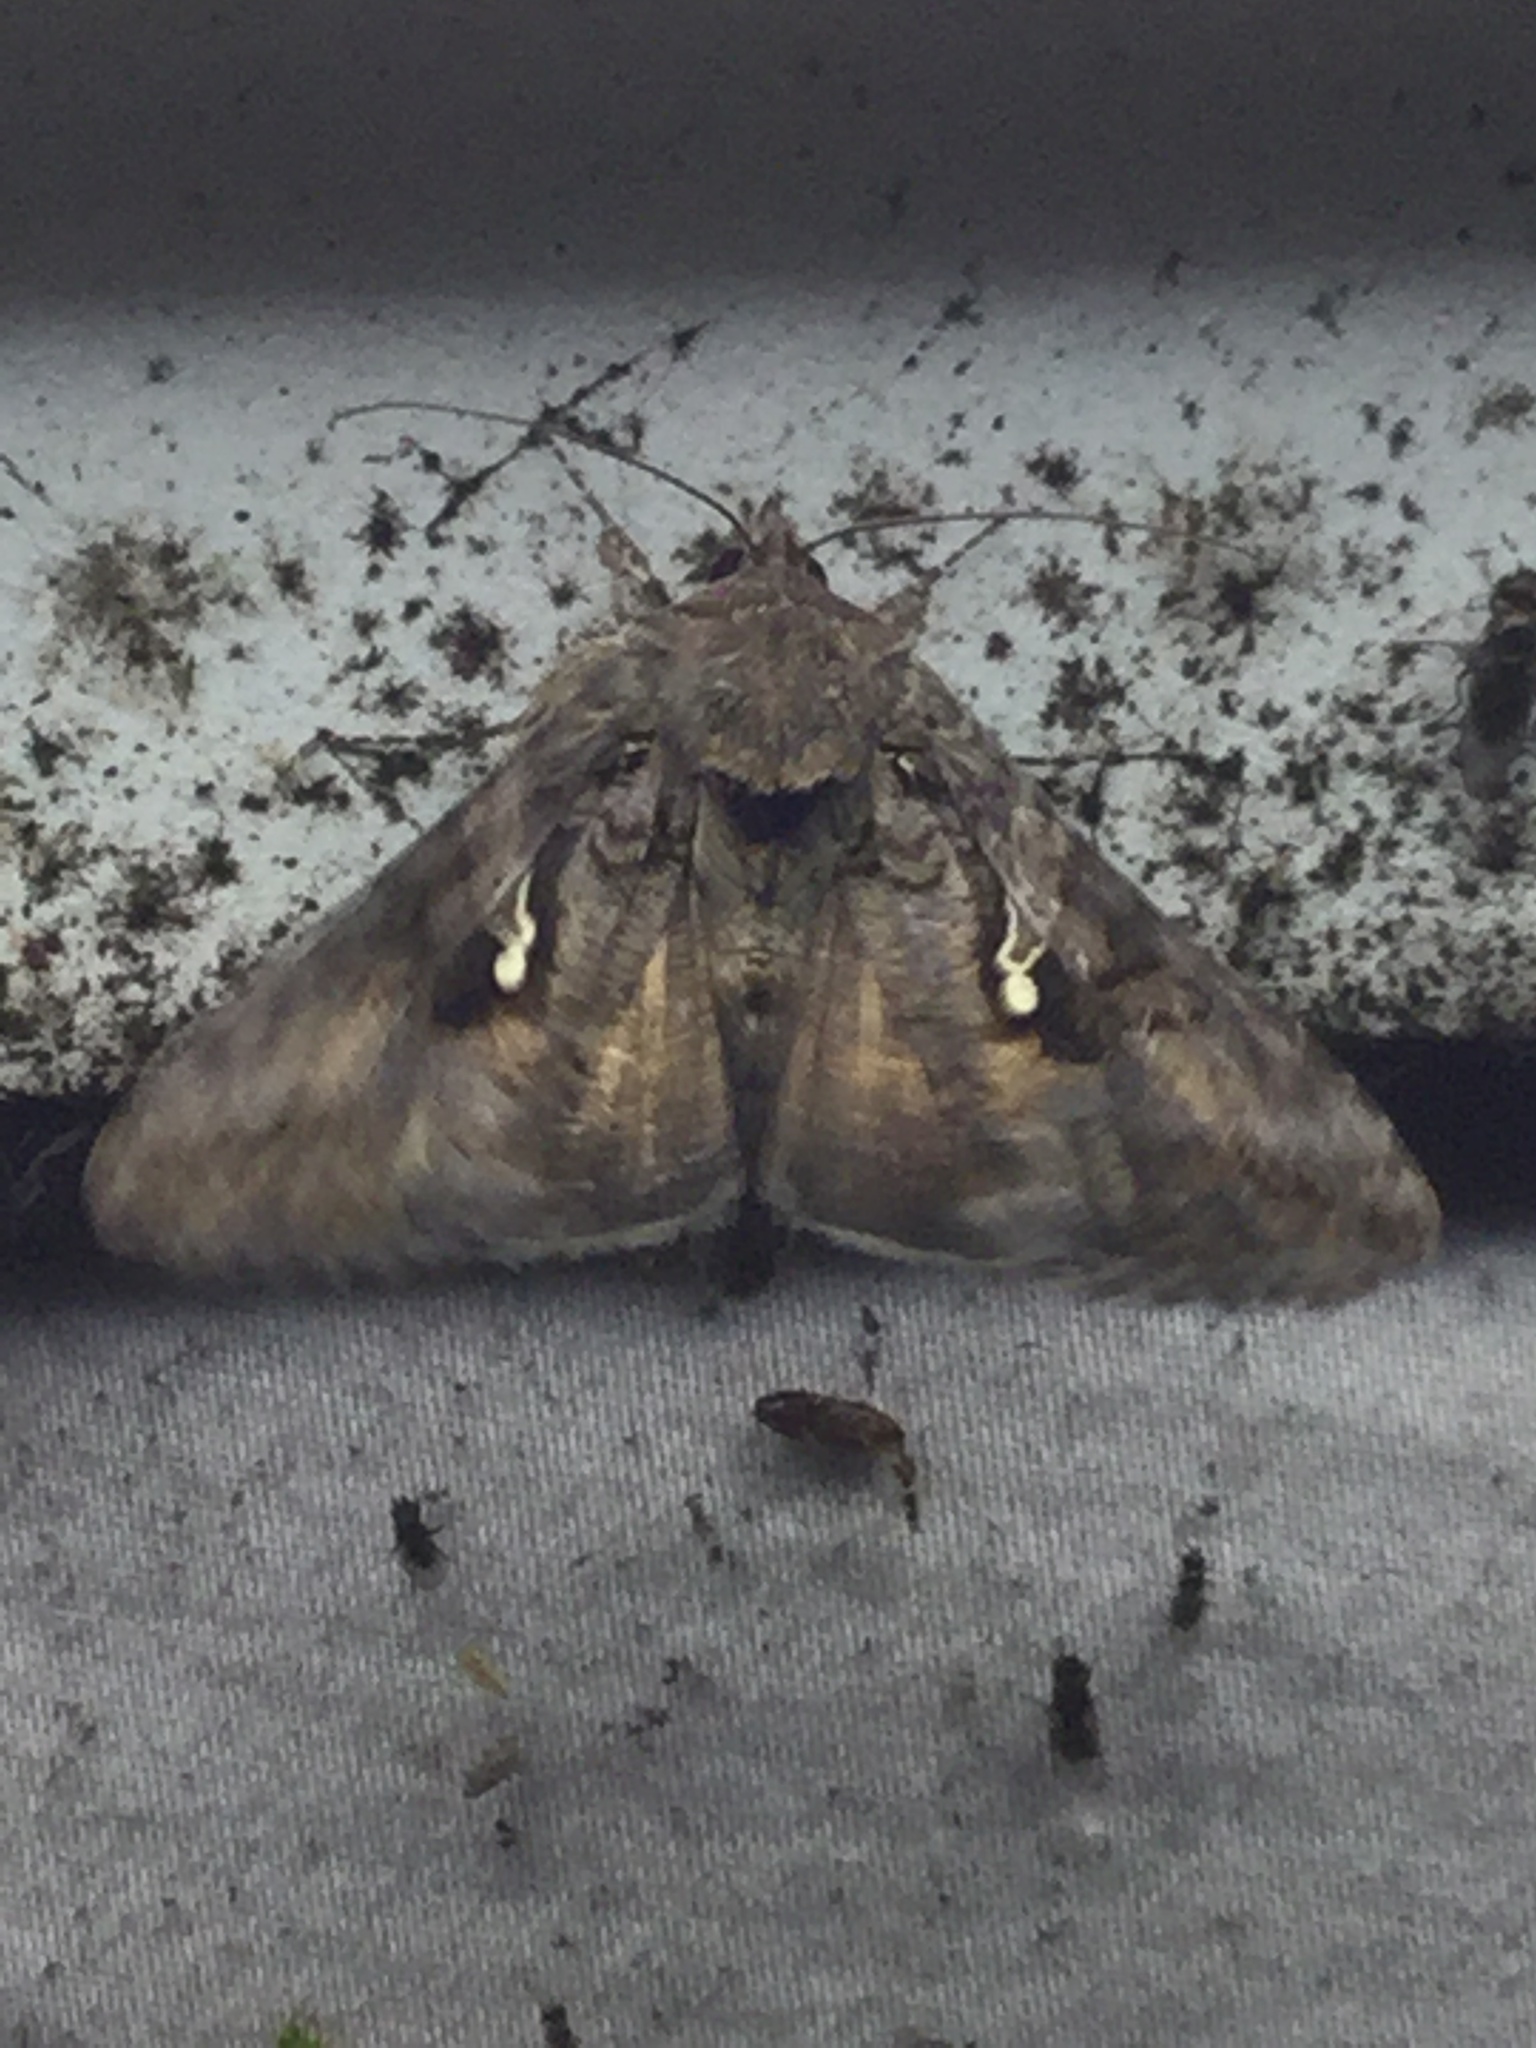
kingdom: Animalia
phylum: Arthropoda
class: Insecta
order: Lepidoptera
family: Noctuidae
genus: Rachiplusia
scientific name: Rachiplusia ou
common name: Gray looper moth
